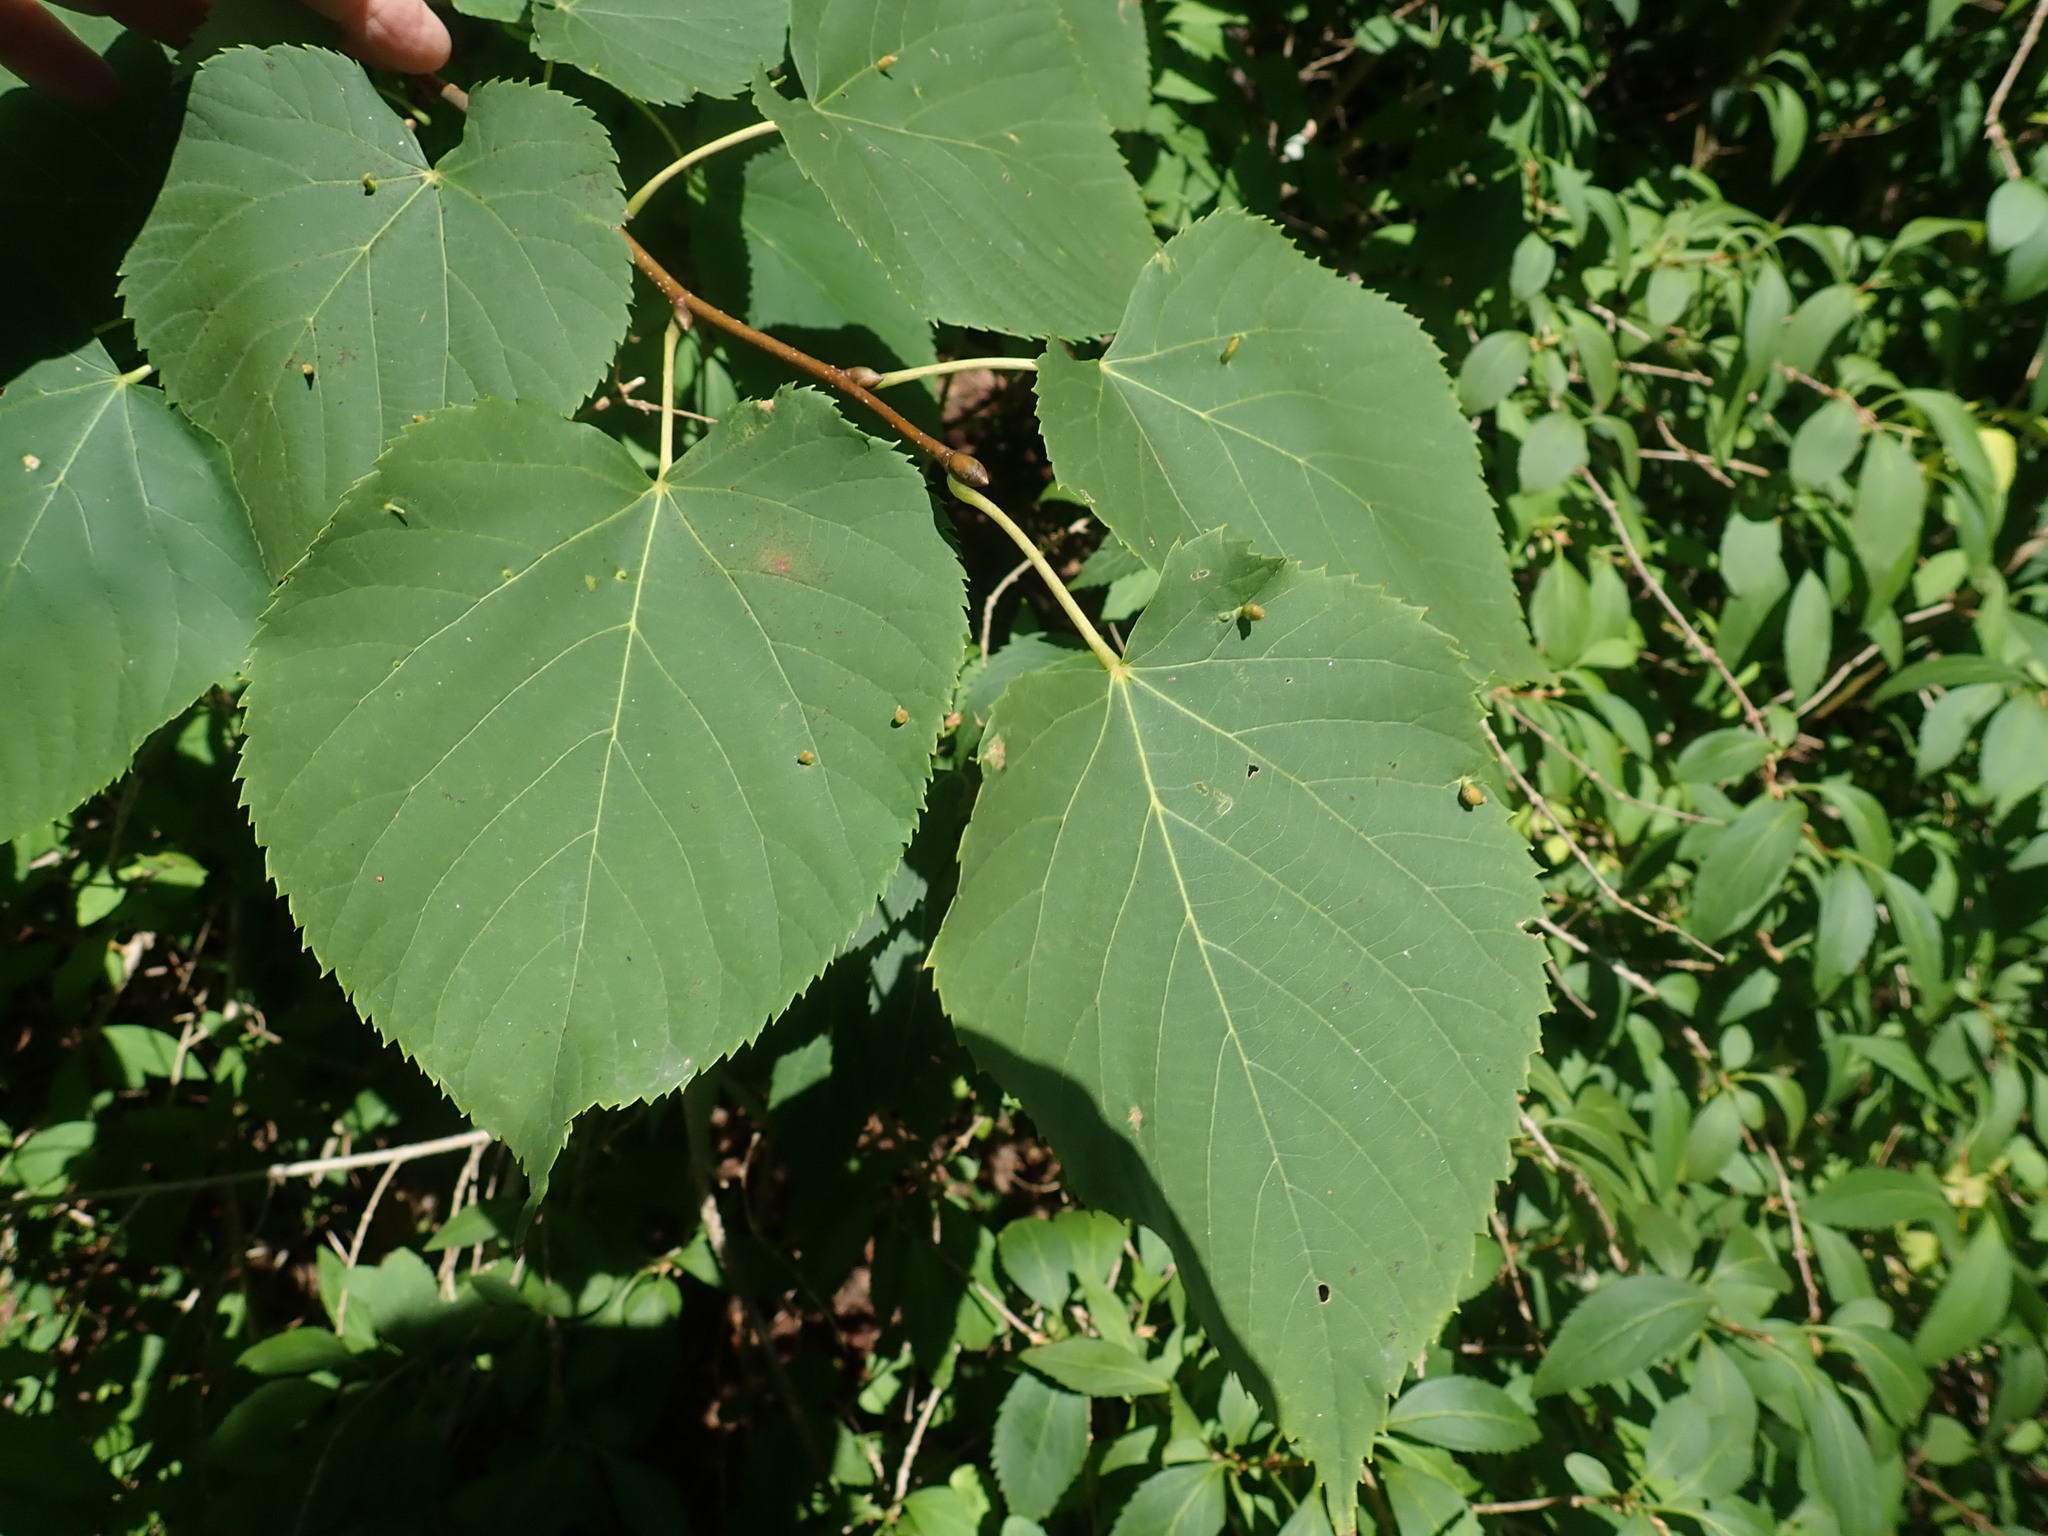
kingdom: Animalia
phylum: Arthropoda
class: Arachnida
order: Trombidiformes
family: Eriophyidae
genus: Eriophyes
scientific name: Eriophyes tiliae
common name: Red nail gall mite
